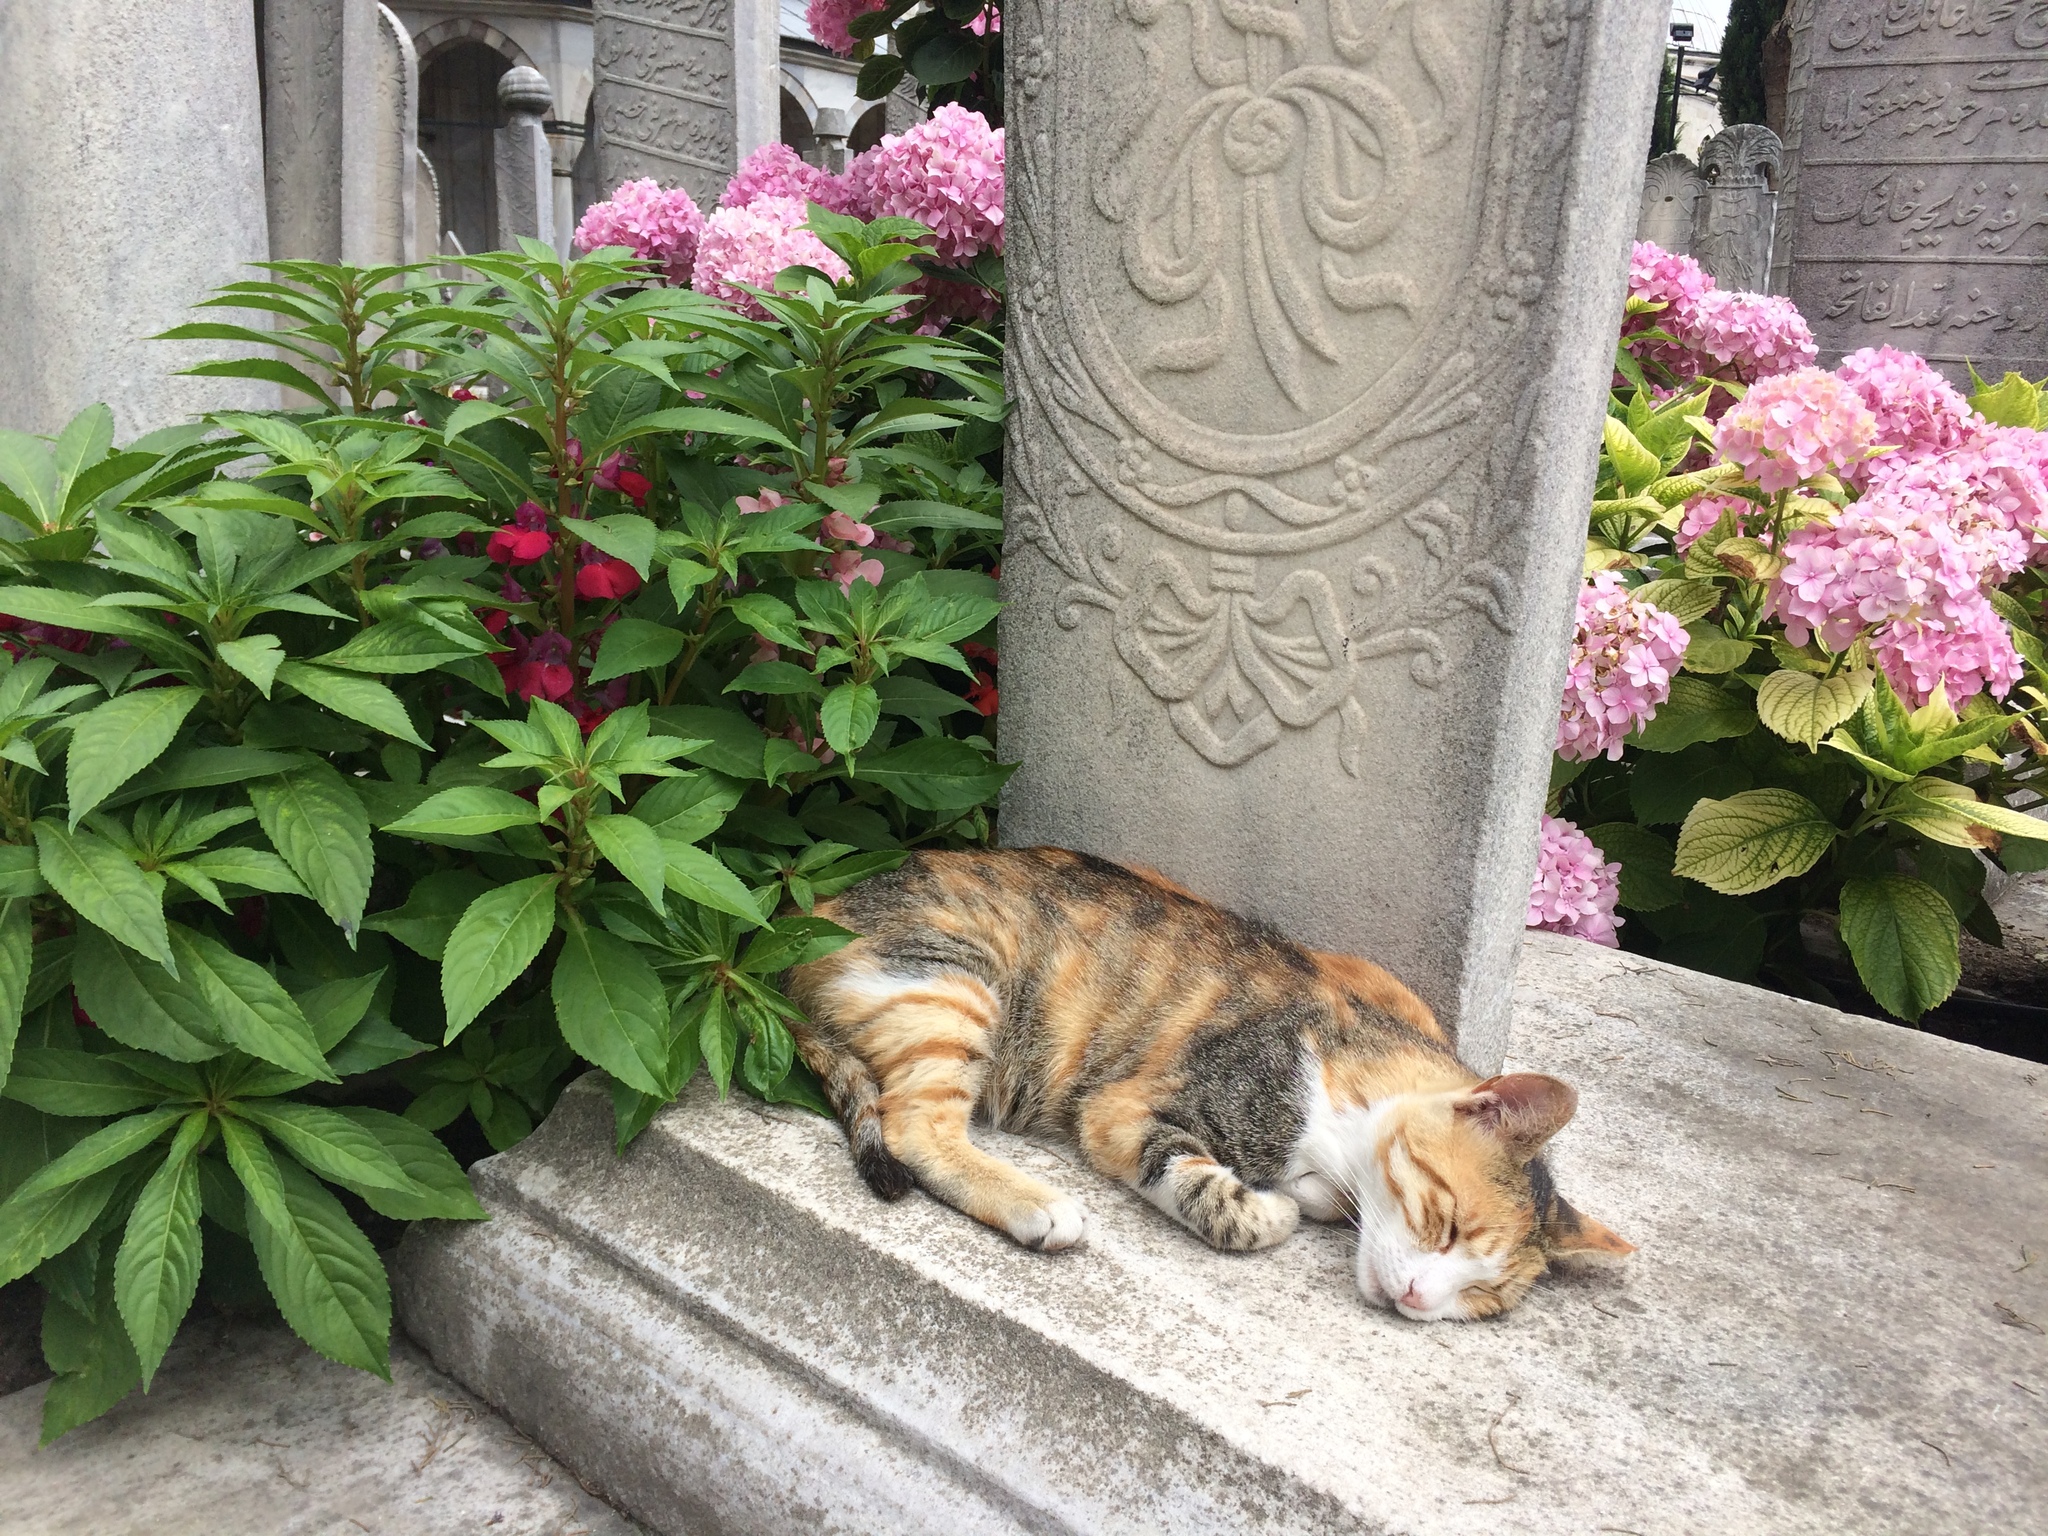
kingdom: Animalia
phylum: Chordata
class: Mammalia
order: Carnivora
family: Felidae
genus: Felis
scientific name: Felis catus
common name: Domestic cat
